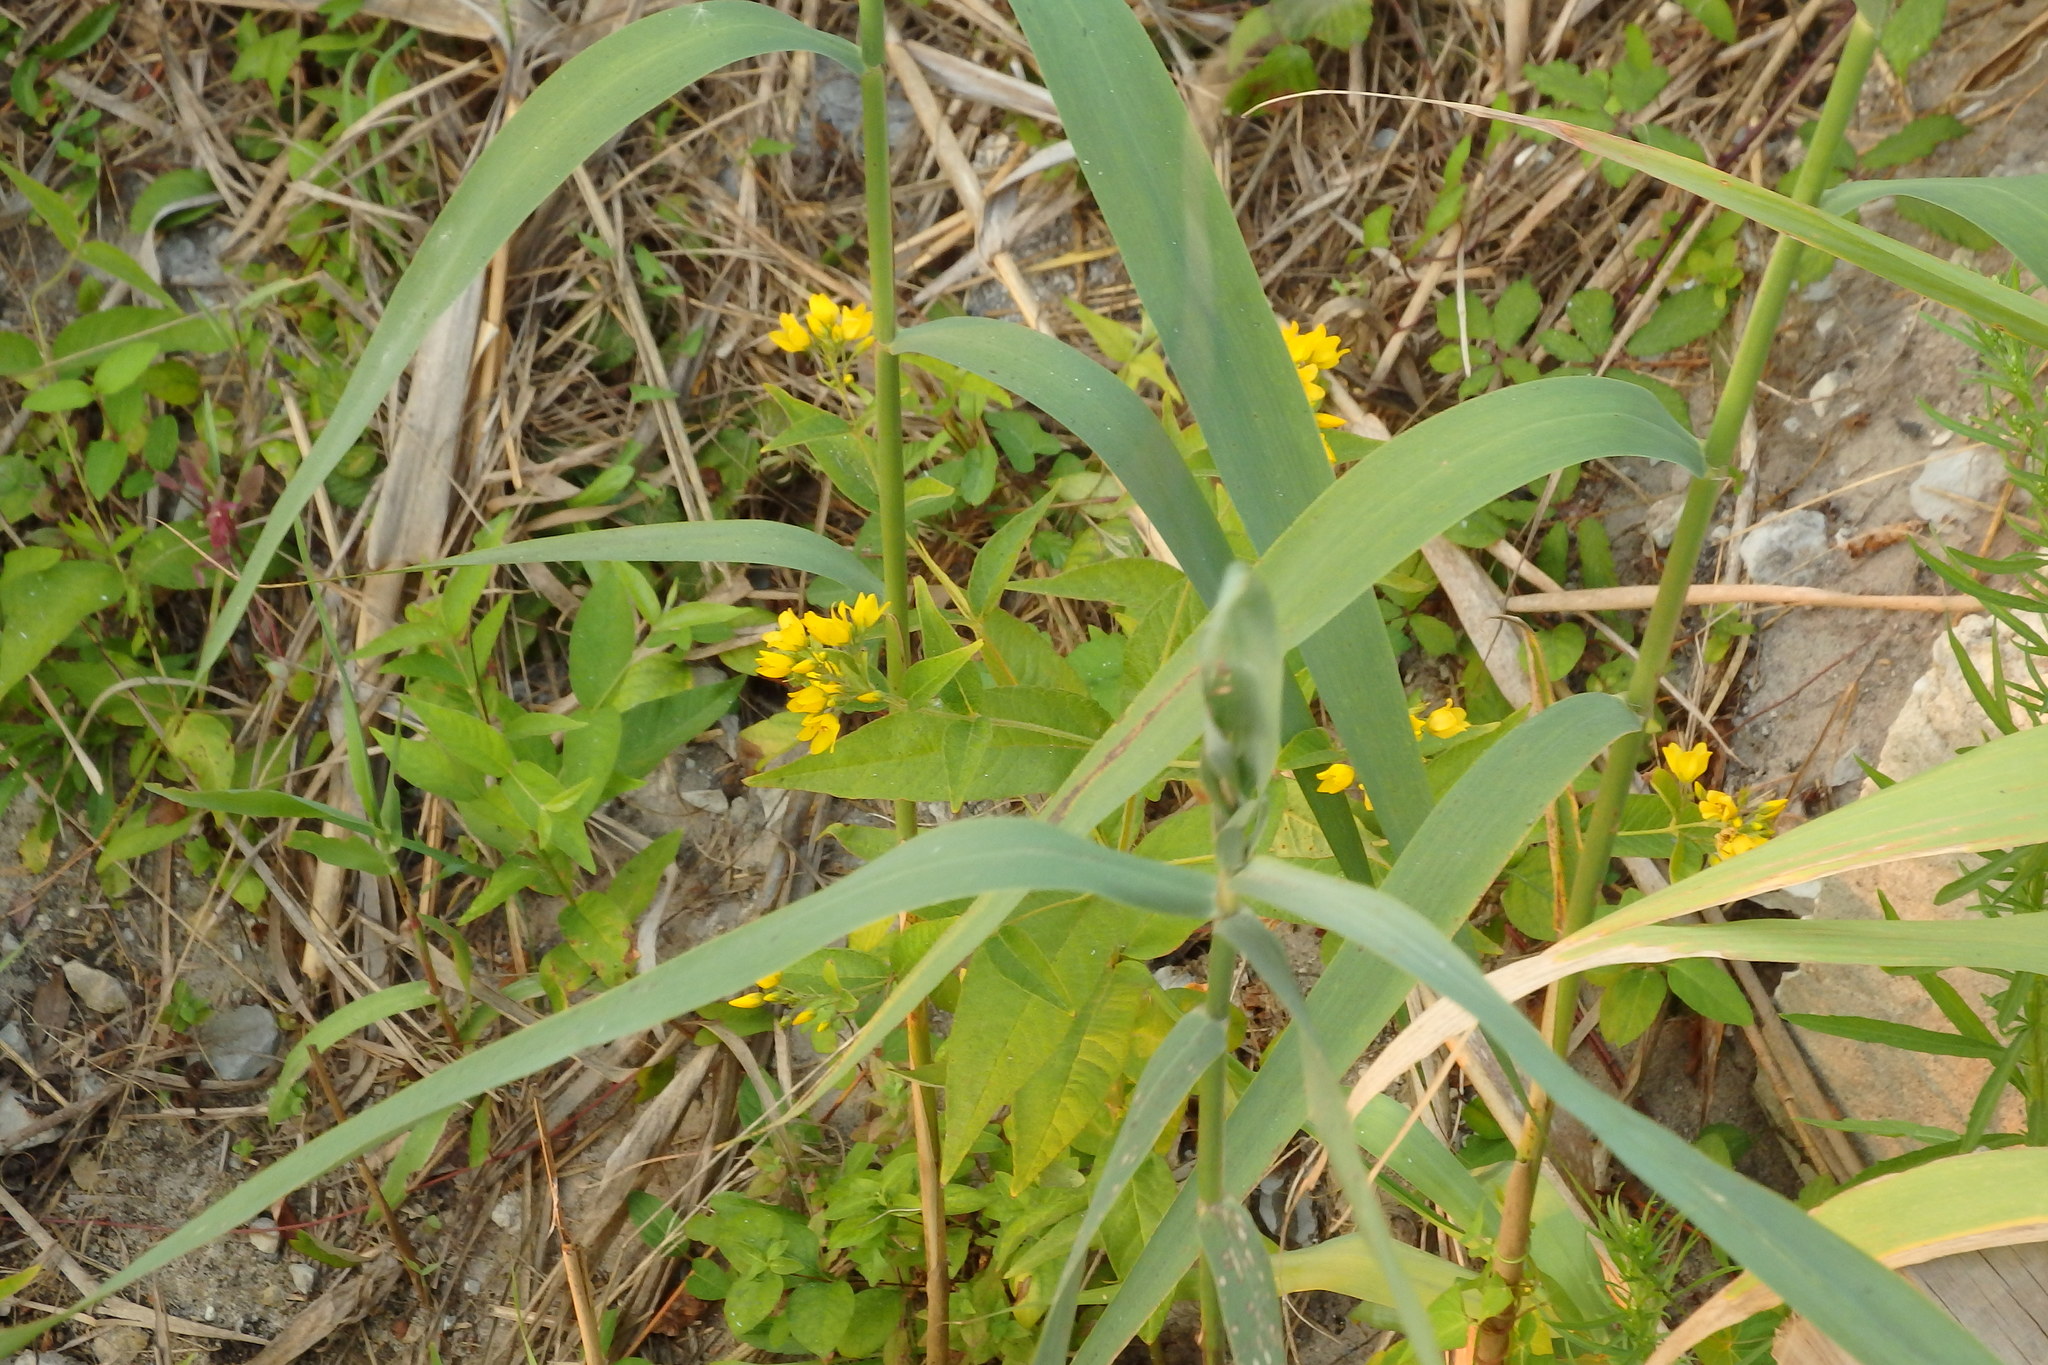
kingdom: Plantae
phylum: Tracheophyta
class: Magnoliopsida
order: Ericales
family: Primulaceae
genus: Lysimachia
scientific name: Lysimachia vulgaris
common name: Yellow loosestrife
